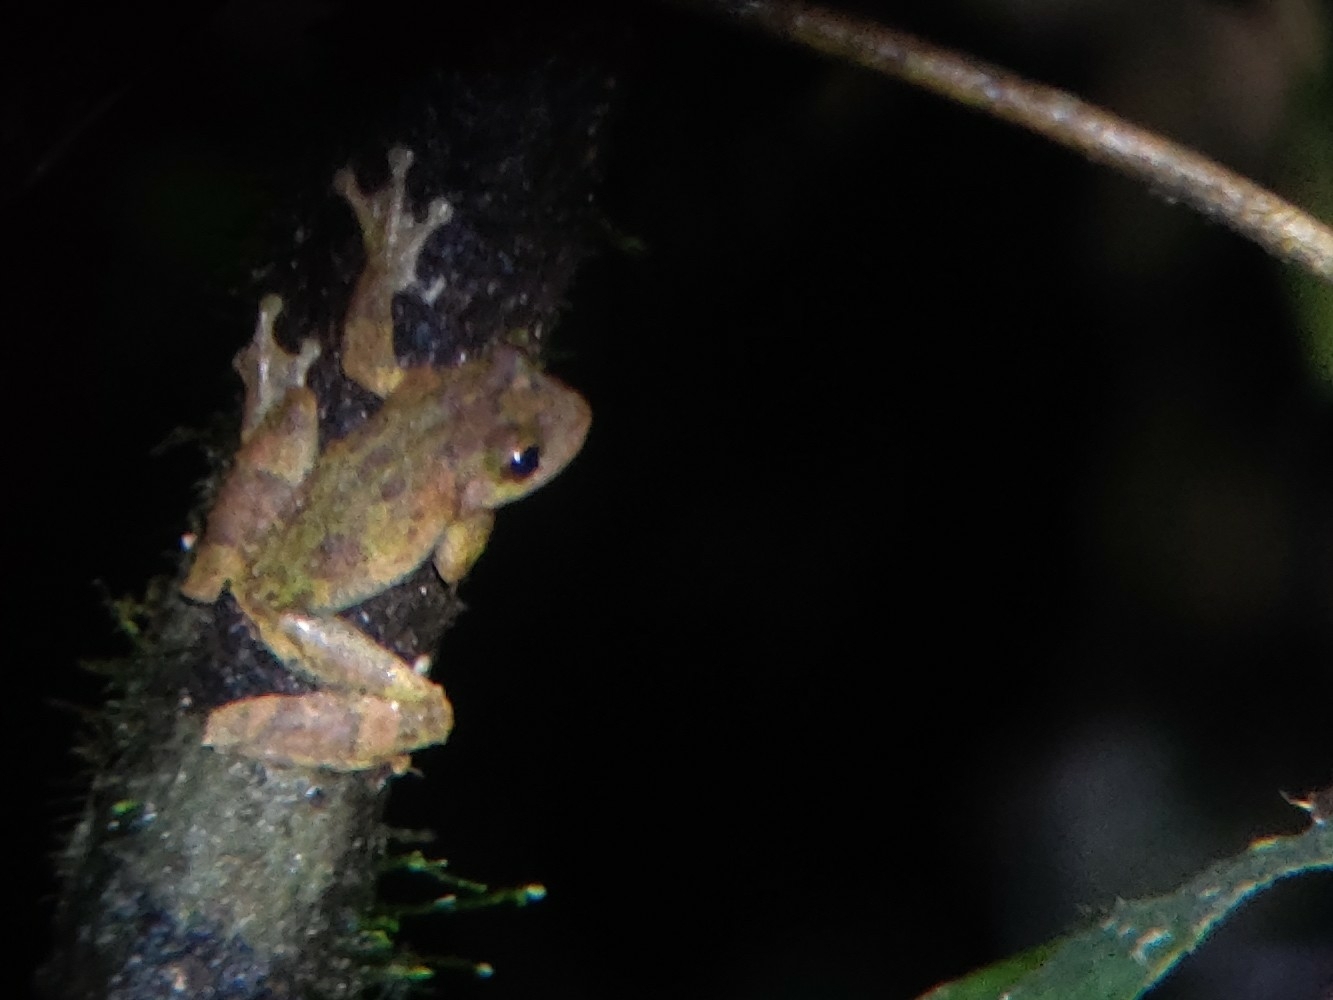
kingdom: Animalia
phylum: Chordata
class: Amphibia
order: Anura
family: Pelodryadidae
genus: Ranoidea
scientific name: Ranoidea serrata
